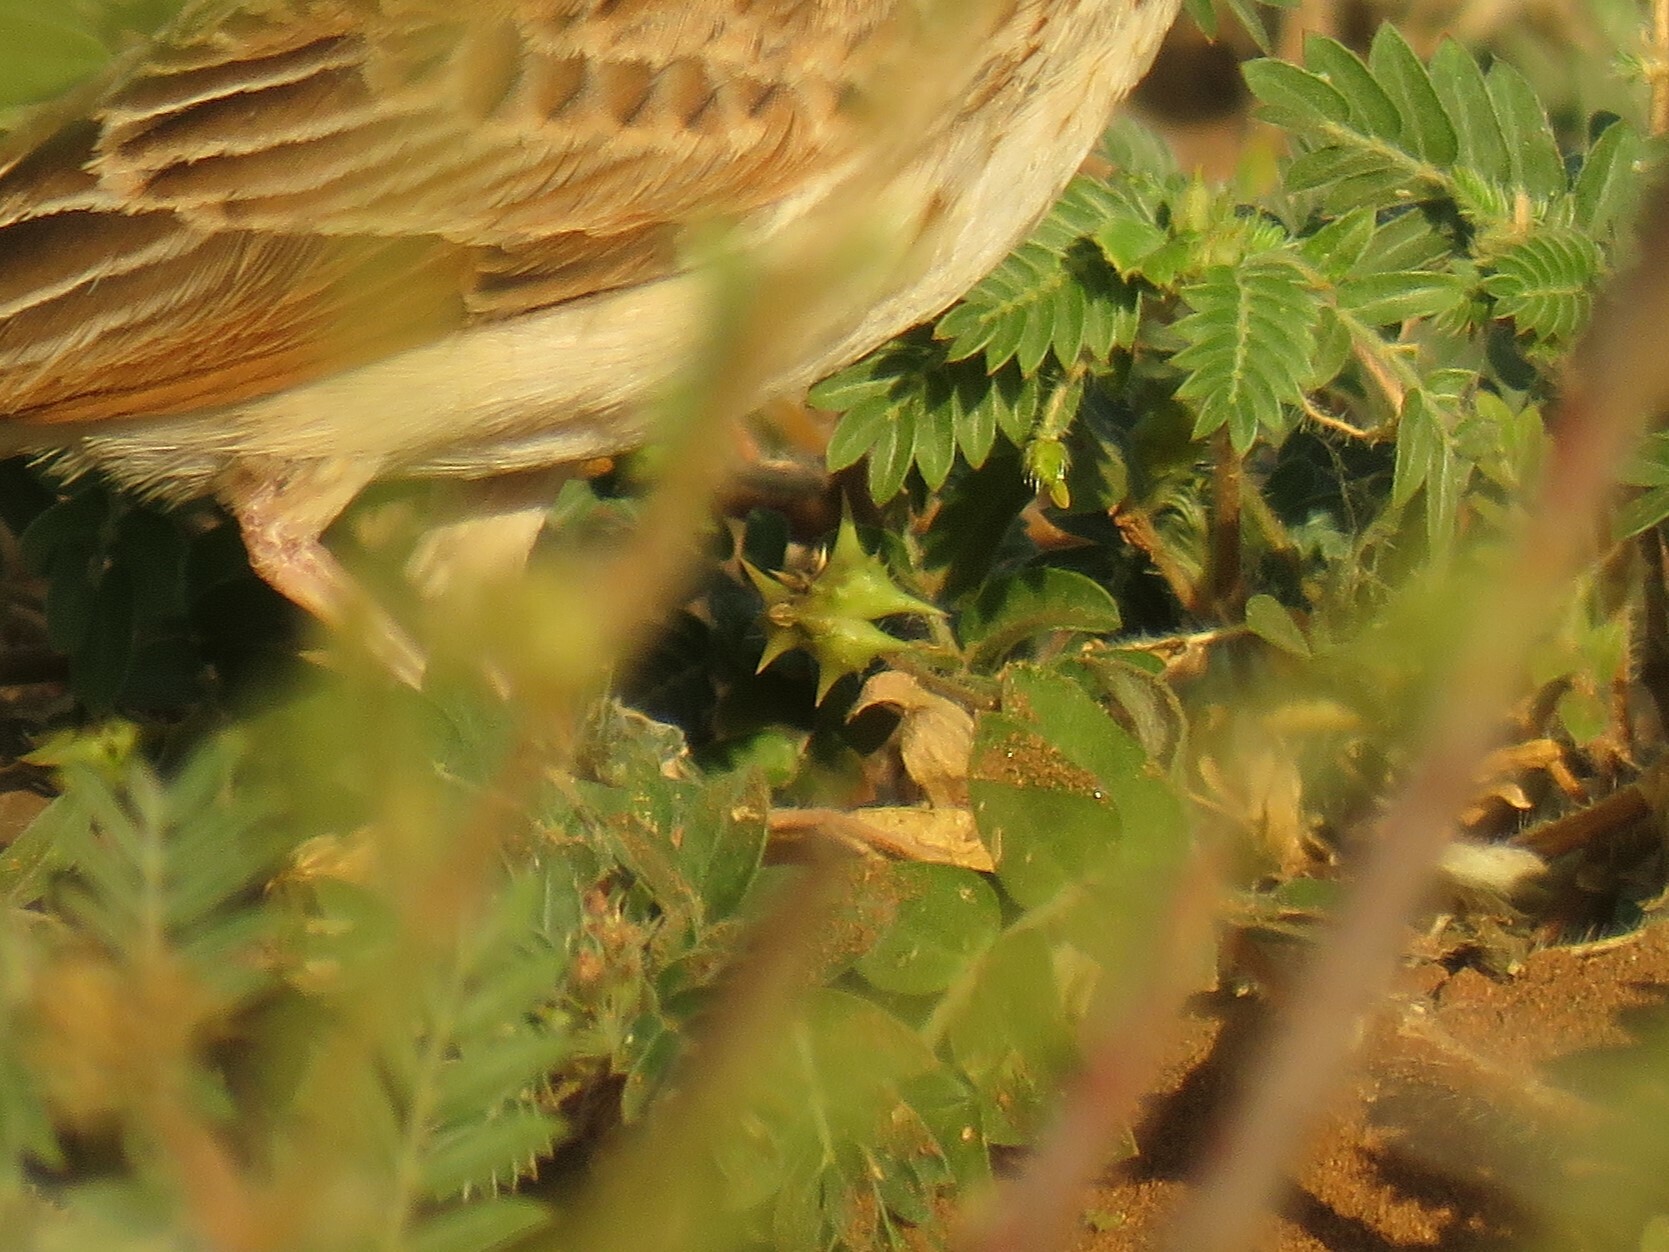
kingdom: Plantae
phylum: Tracheophyta
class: Magnoliopsida
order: Zygophyllales
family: Zygophyllaceae
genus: Tribulus
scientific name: Tribulus terrestris
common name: Puncturevine
